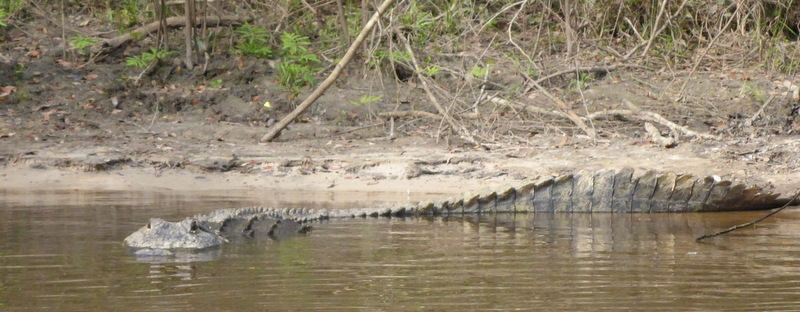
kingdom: Animalia
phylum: Chordata
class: Crocodylia
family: Alligatoridae
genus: Alligator
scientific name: Alligator mississippiensis
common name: American alligator
